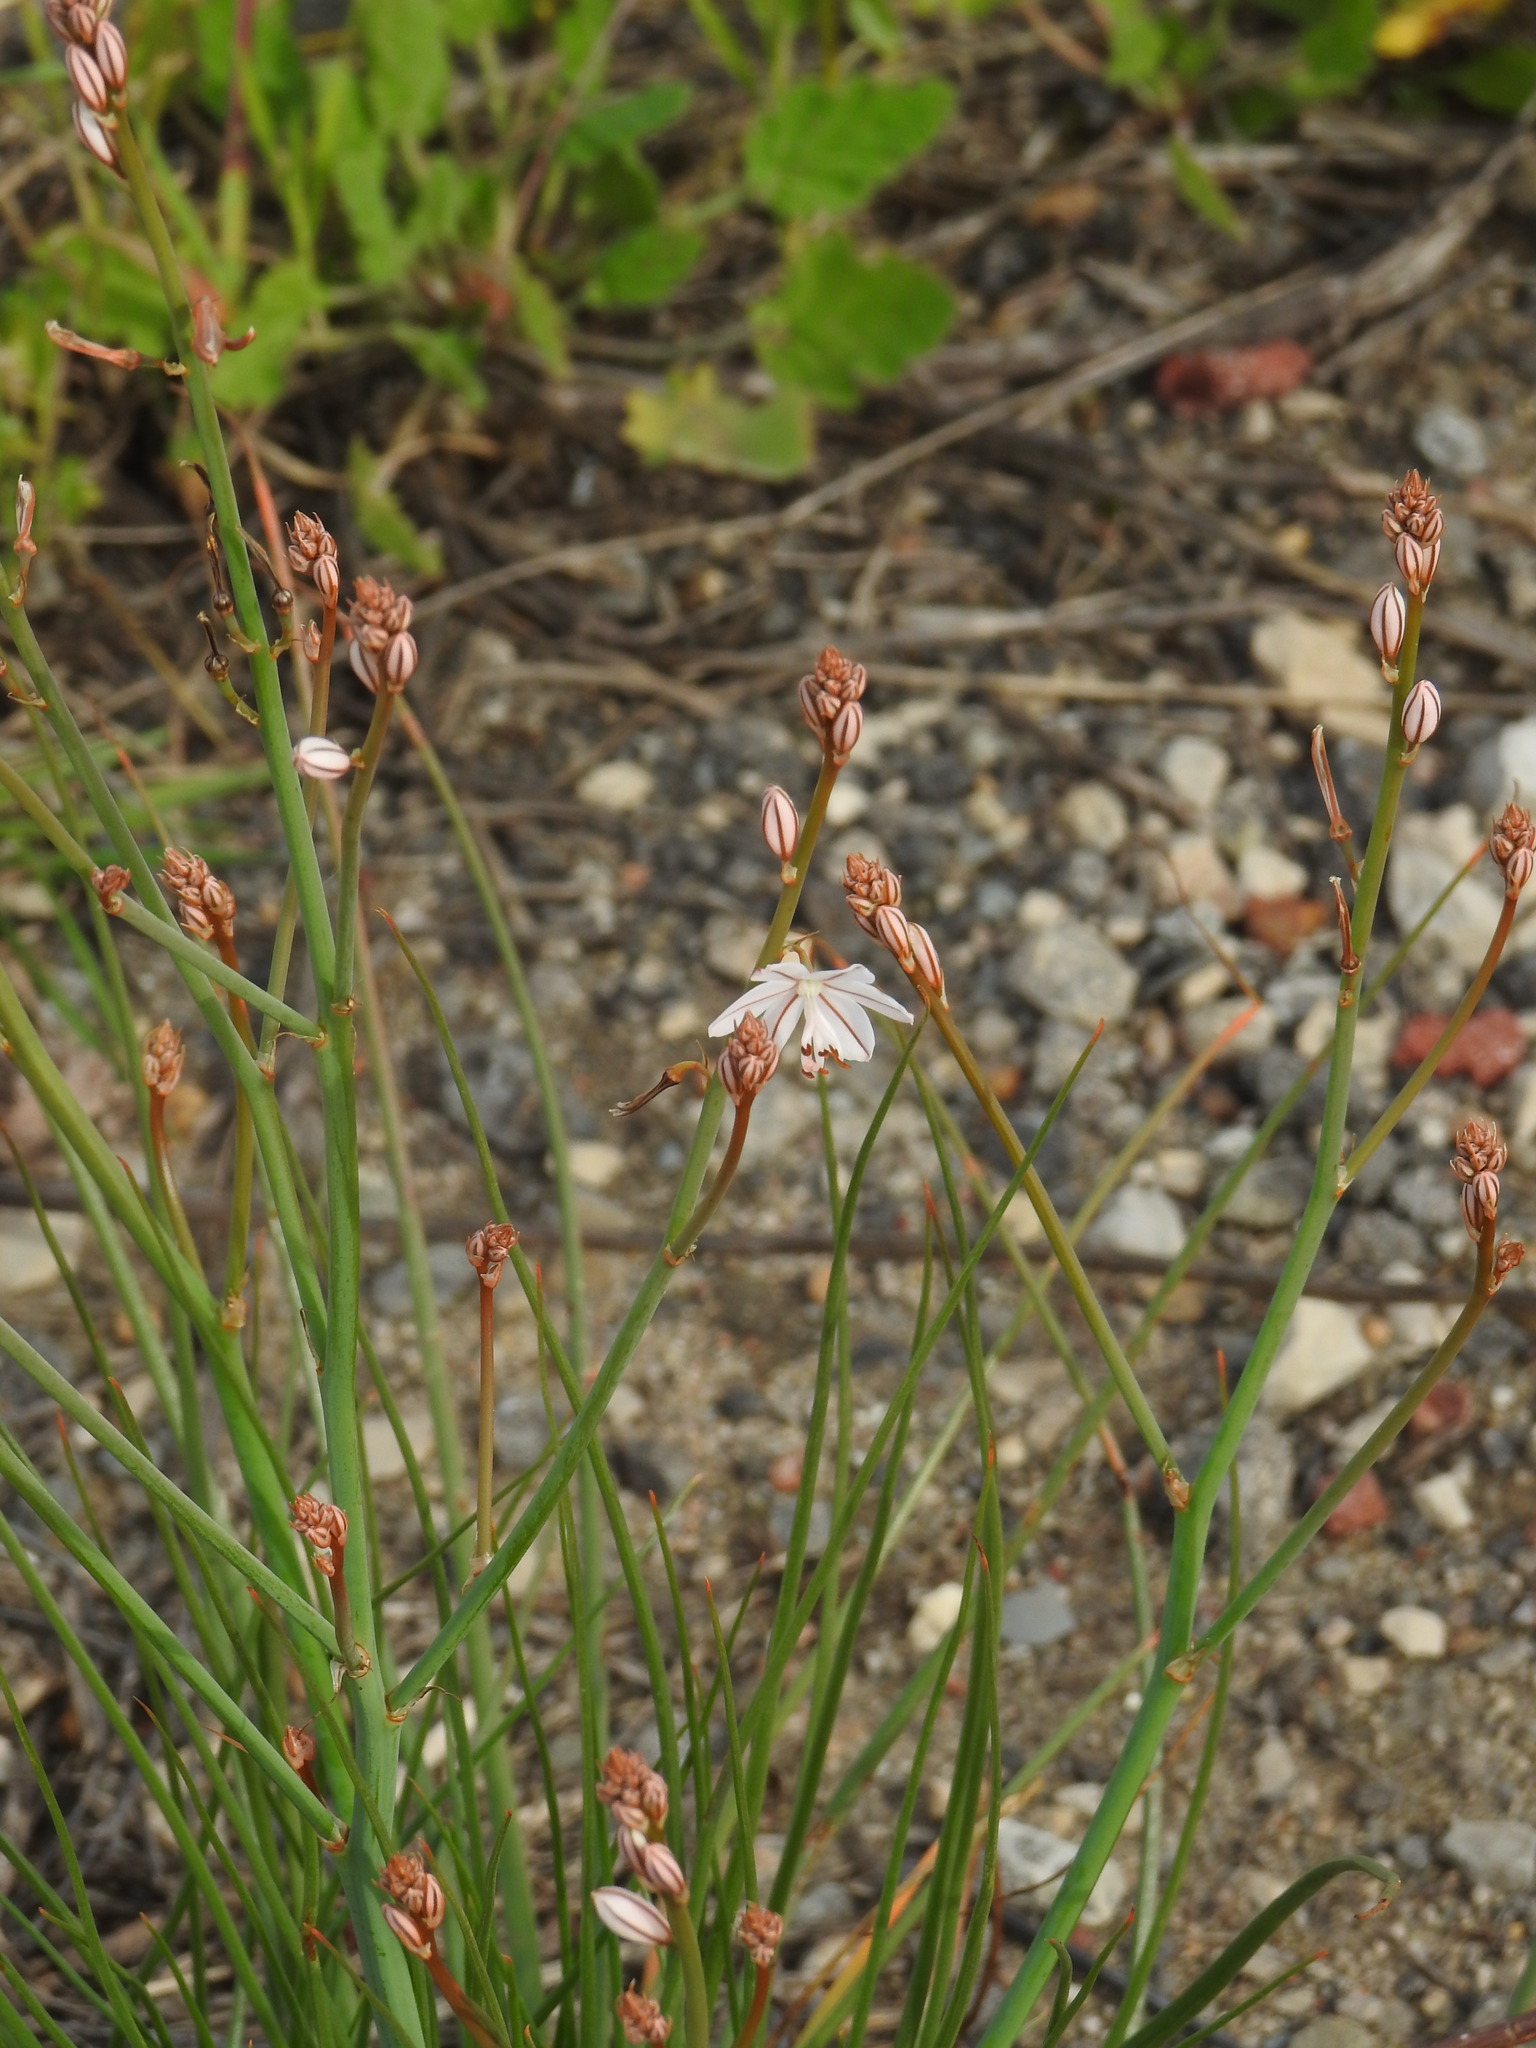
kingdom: Plantae
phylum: Tracheophyta
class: Liliopsida
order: Asparagales
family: Asphodelaceae
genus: Asphodelus
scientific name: Asphodelus fistulosus
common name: Onionweed
